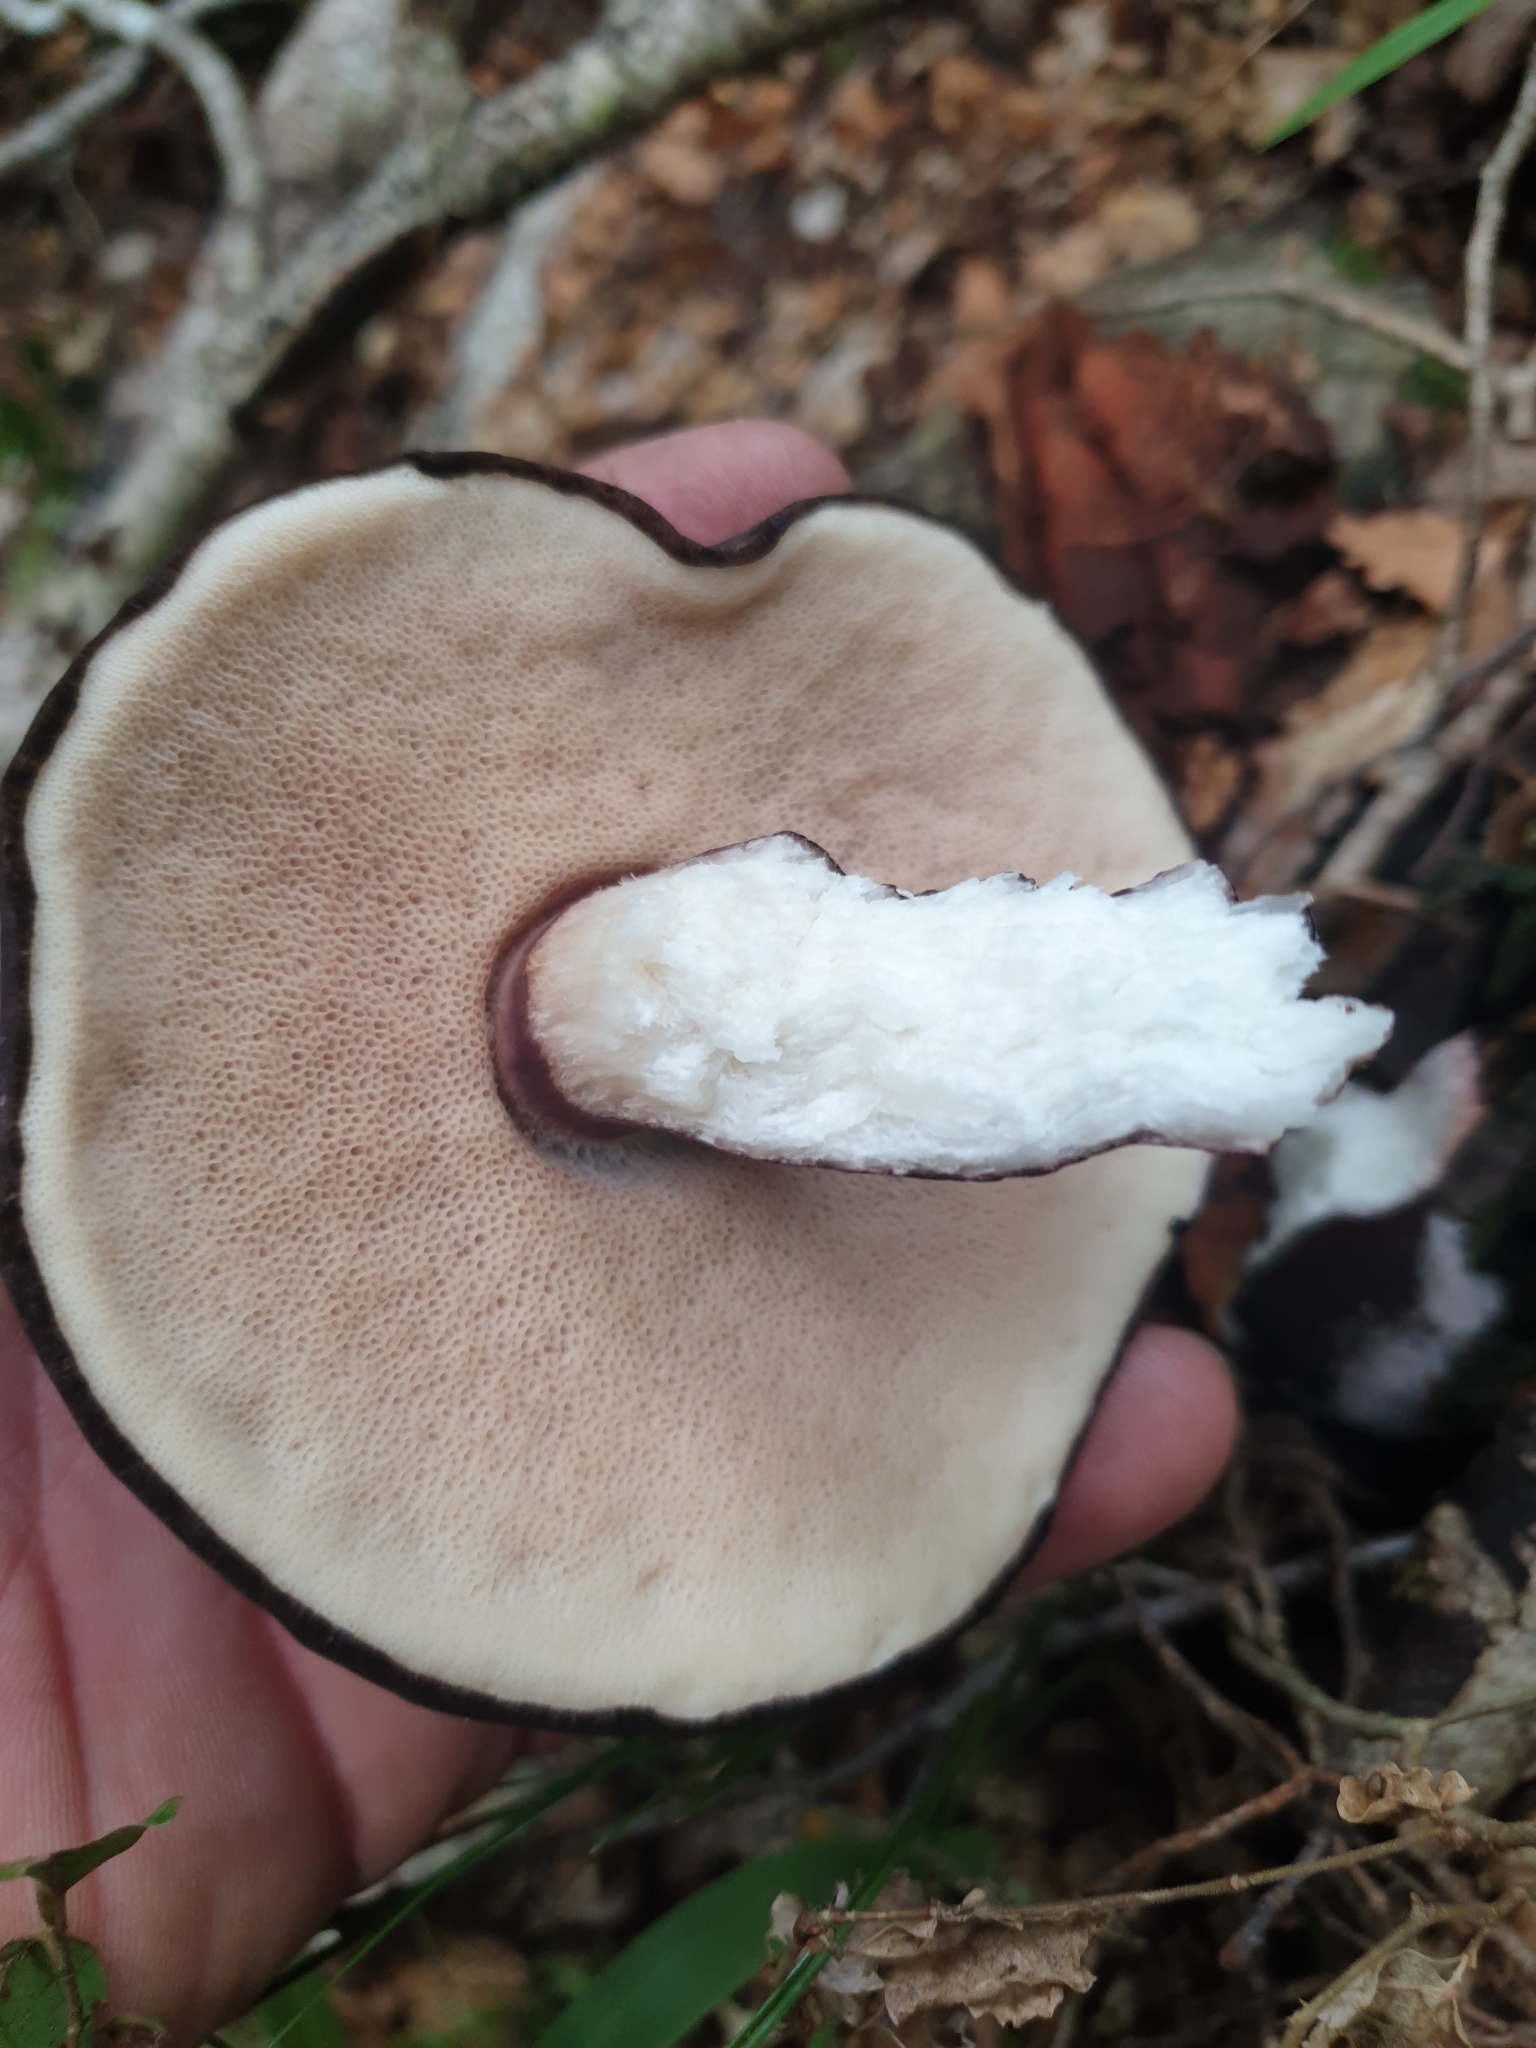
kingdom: Fungi
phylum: Basidiomycota
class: Agaricomycetes
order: Boletales
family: Boletaceae
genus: Porphyrellus
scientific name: Porphyrellus formosus
